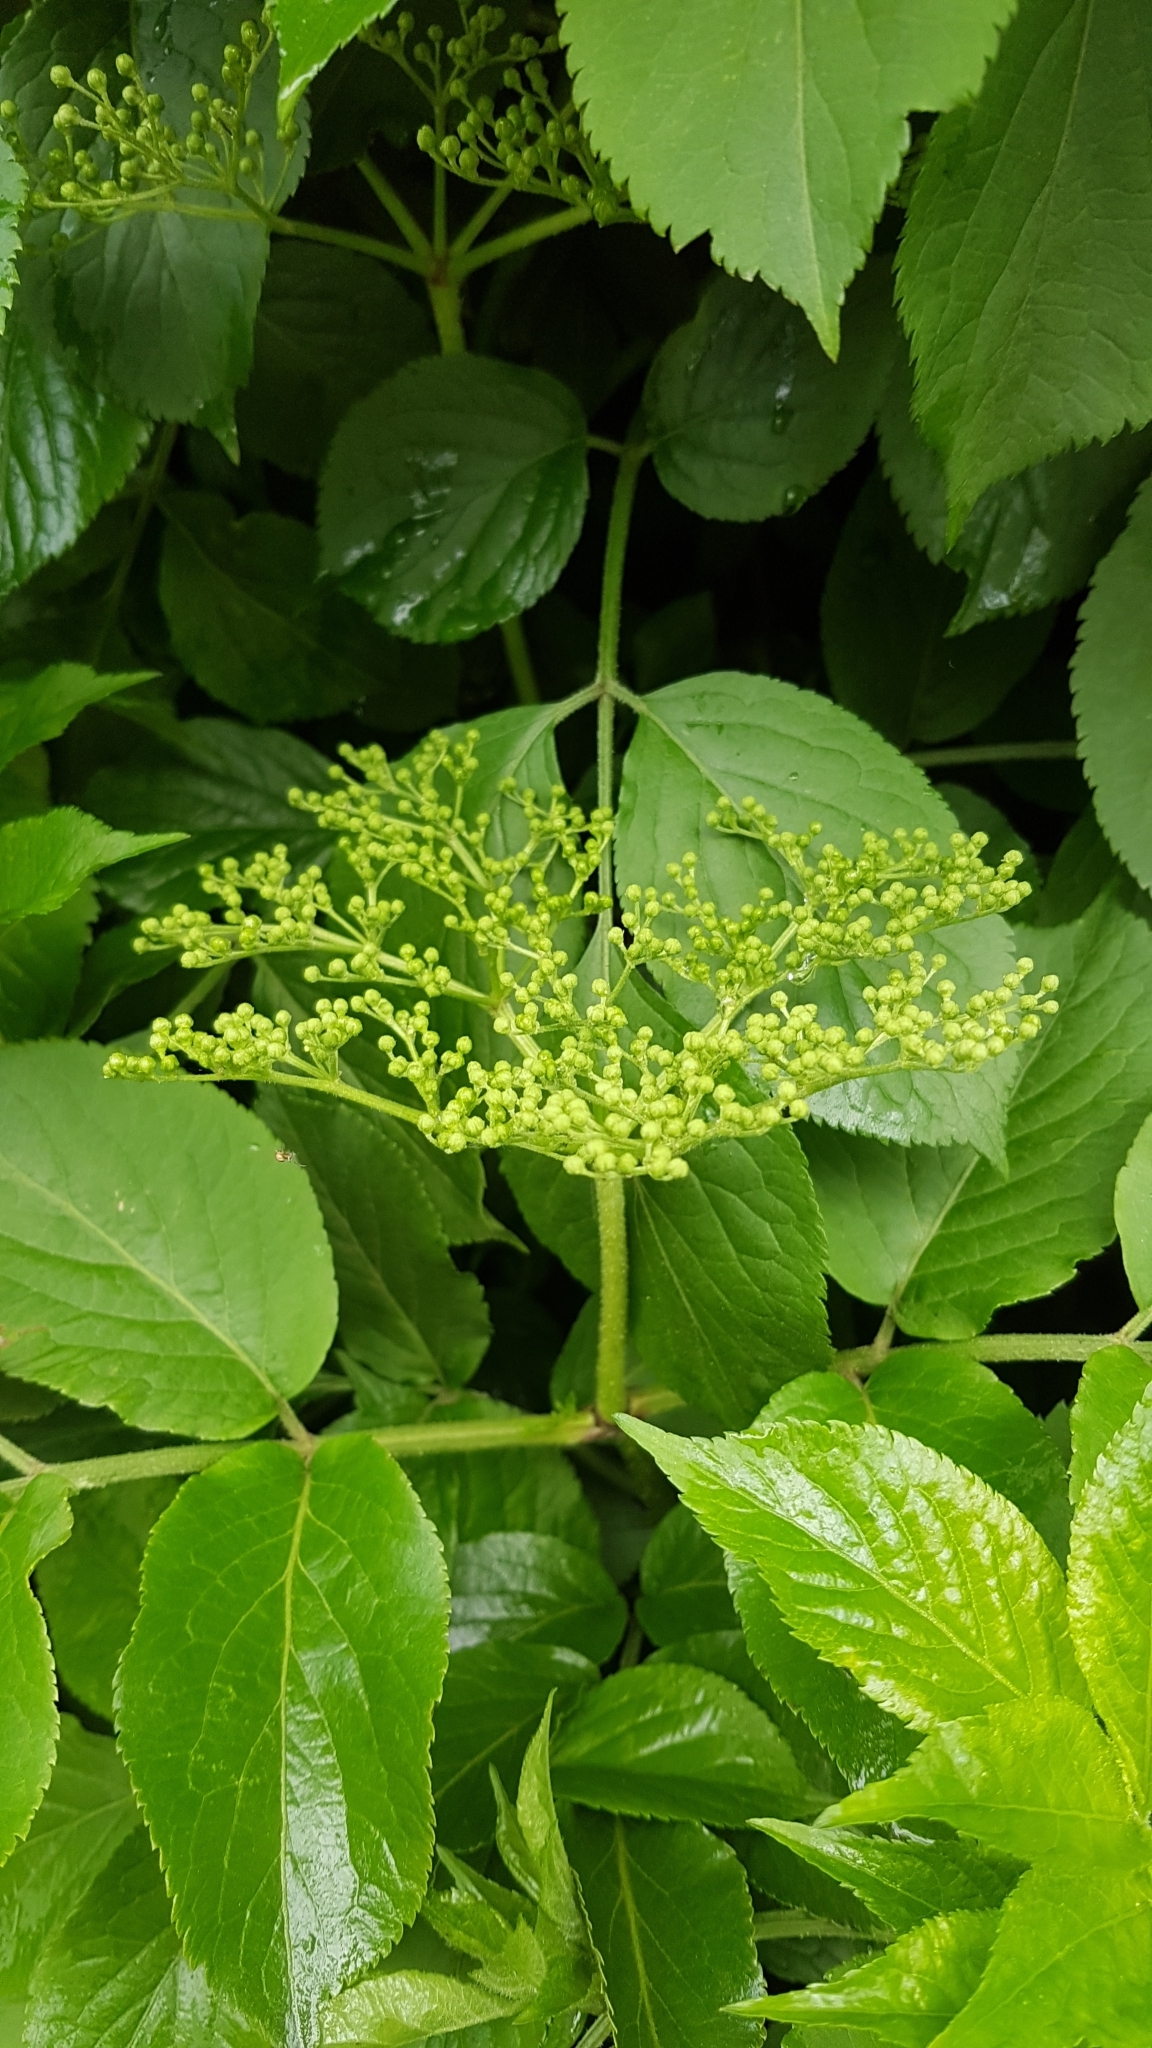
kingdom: Plantae
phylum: Tracheophyta
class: Magnoliopsida
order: Dipsacales
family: Viburnaceae
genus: Sambucus
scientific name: Sambucus nigra
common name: Elder
